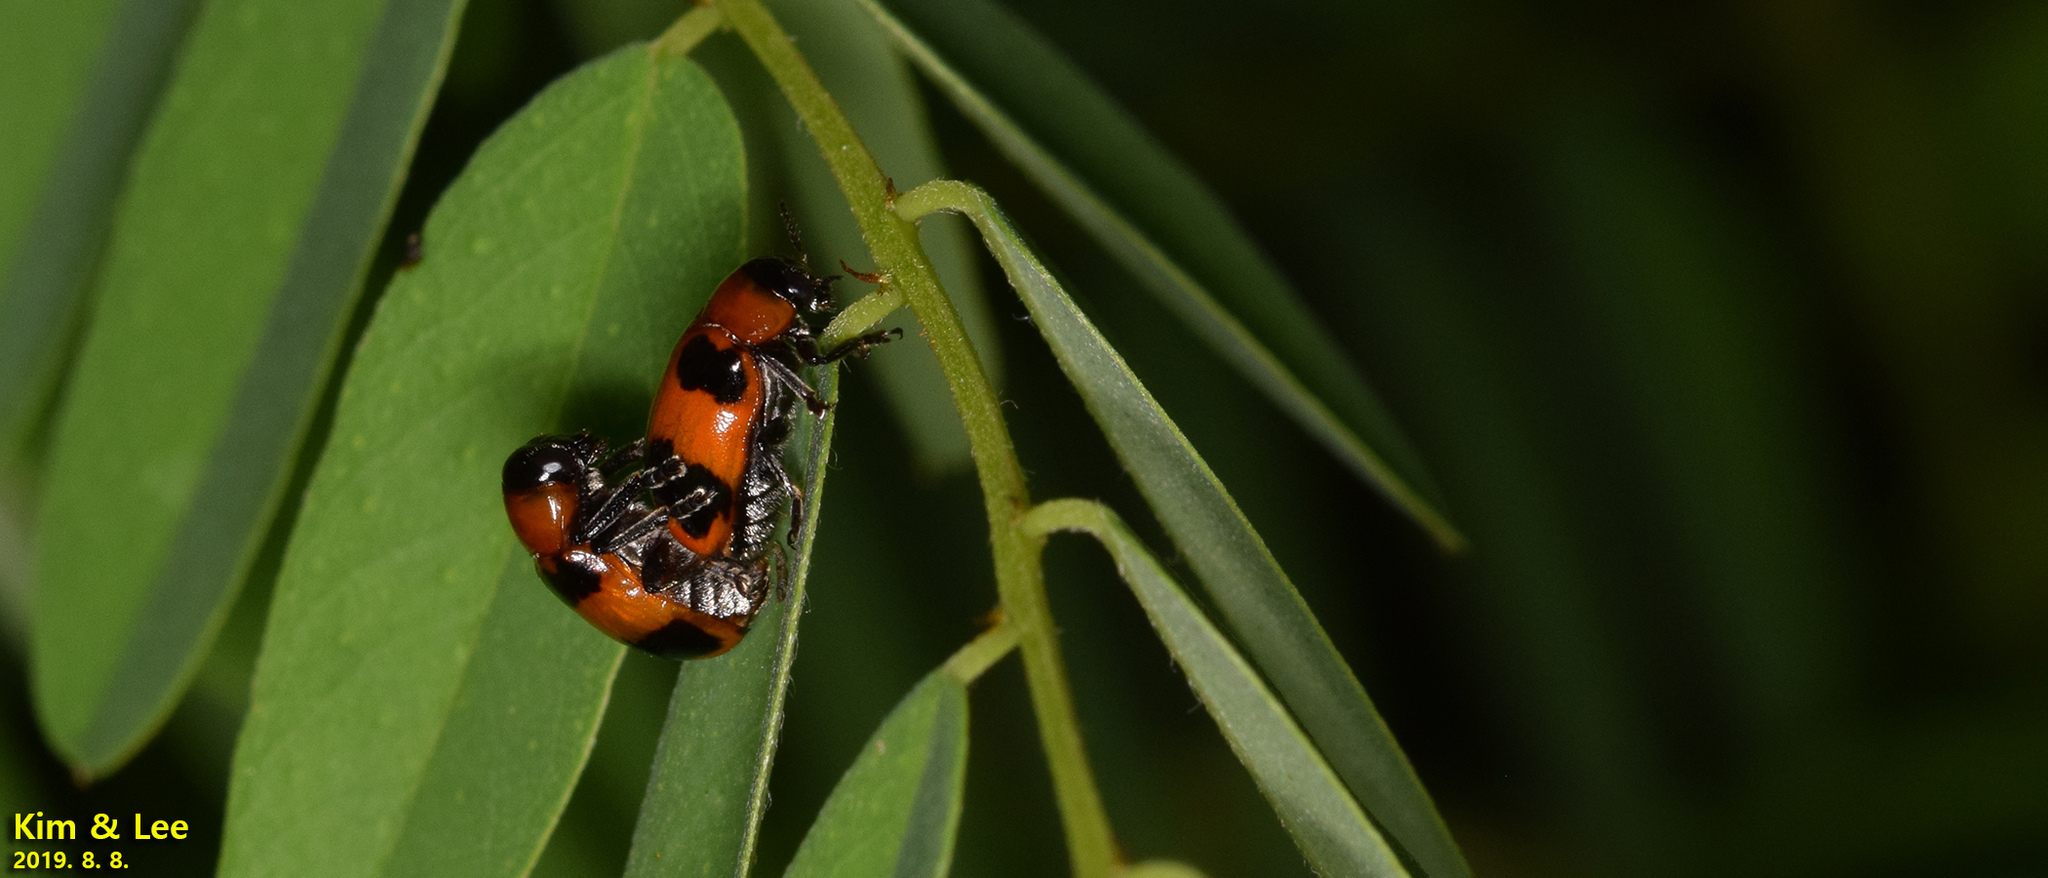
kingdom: Animalia
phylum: Arthropoda
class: Insecta
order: Coleoptera
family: Chrysomelidae
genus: Physosmaragdina
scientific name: Physosmaragdina nigrifrons
